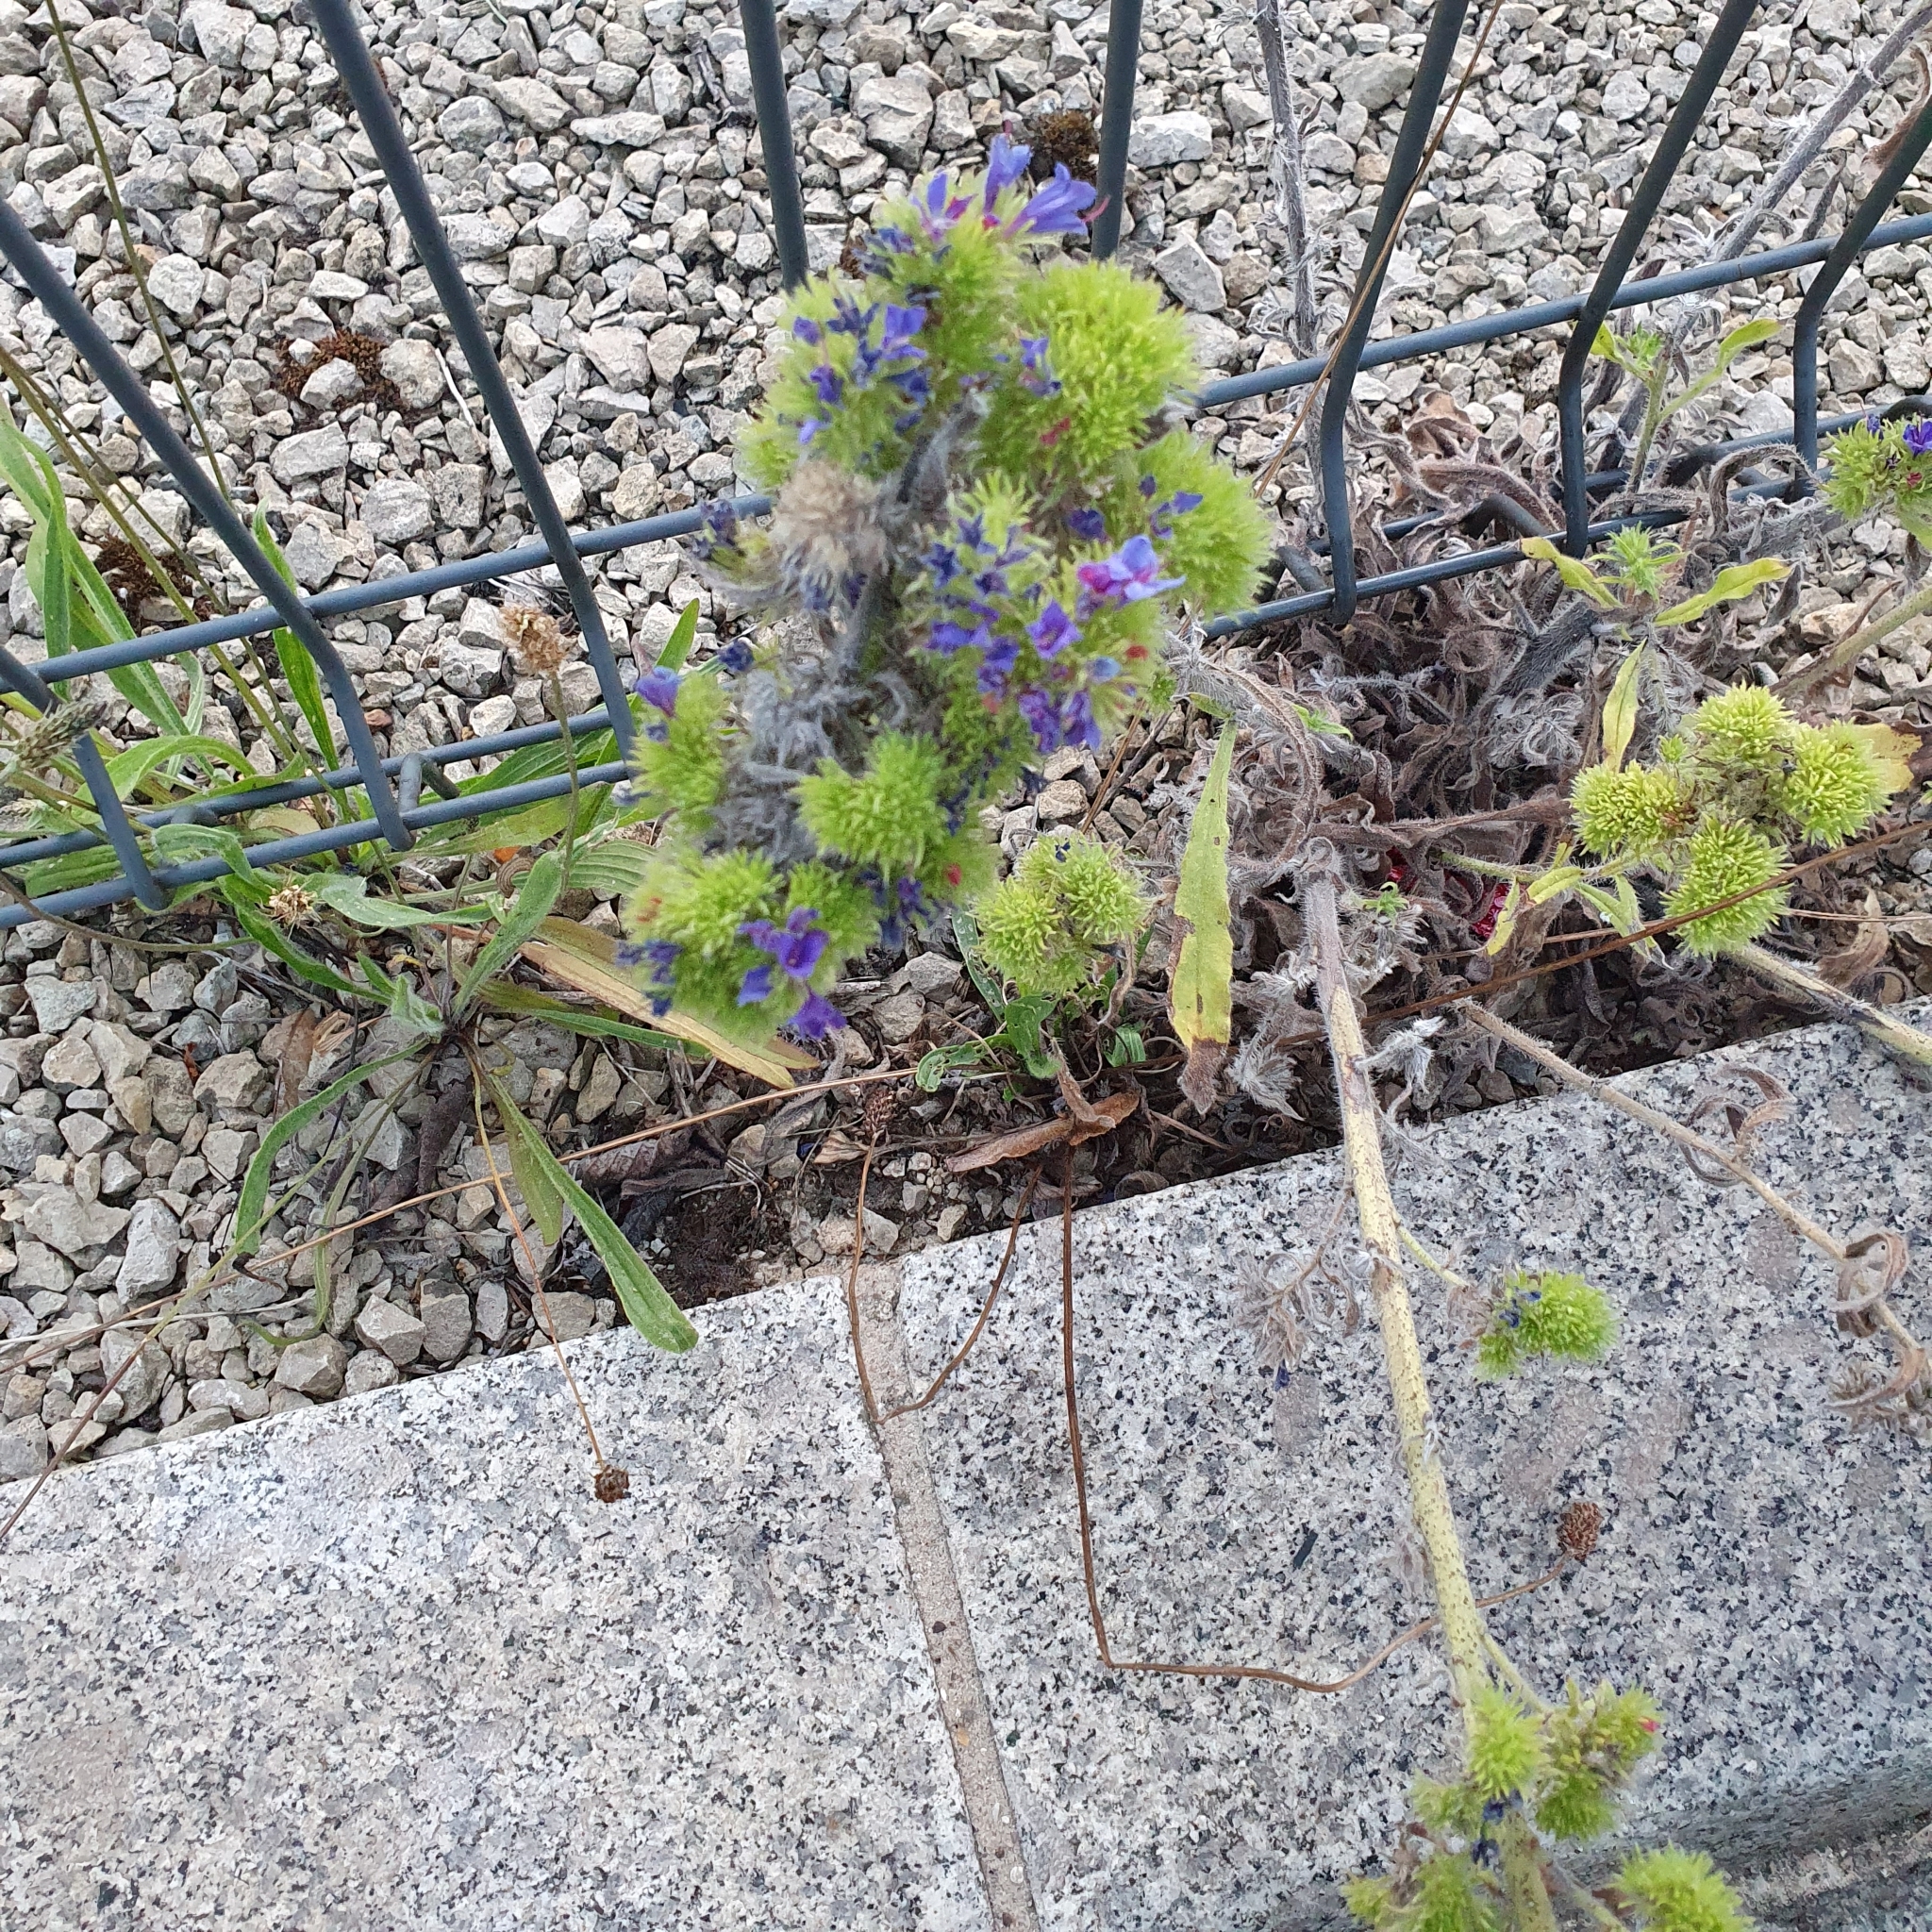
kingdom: Animalia
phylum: Arthropoda
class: Arachnida
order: Trombidiformes
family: Eriophyidae
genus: Aceria
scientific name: Aceria echii
